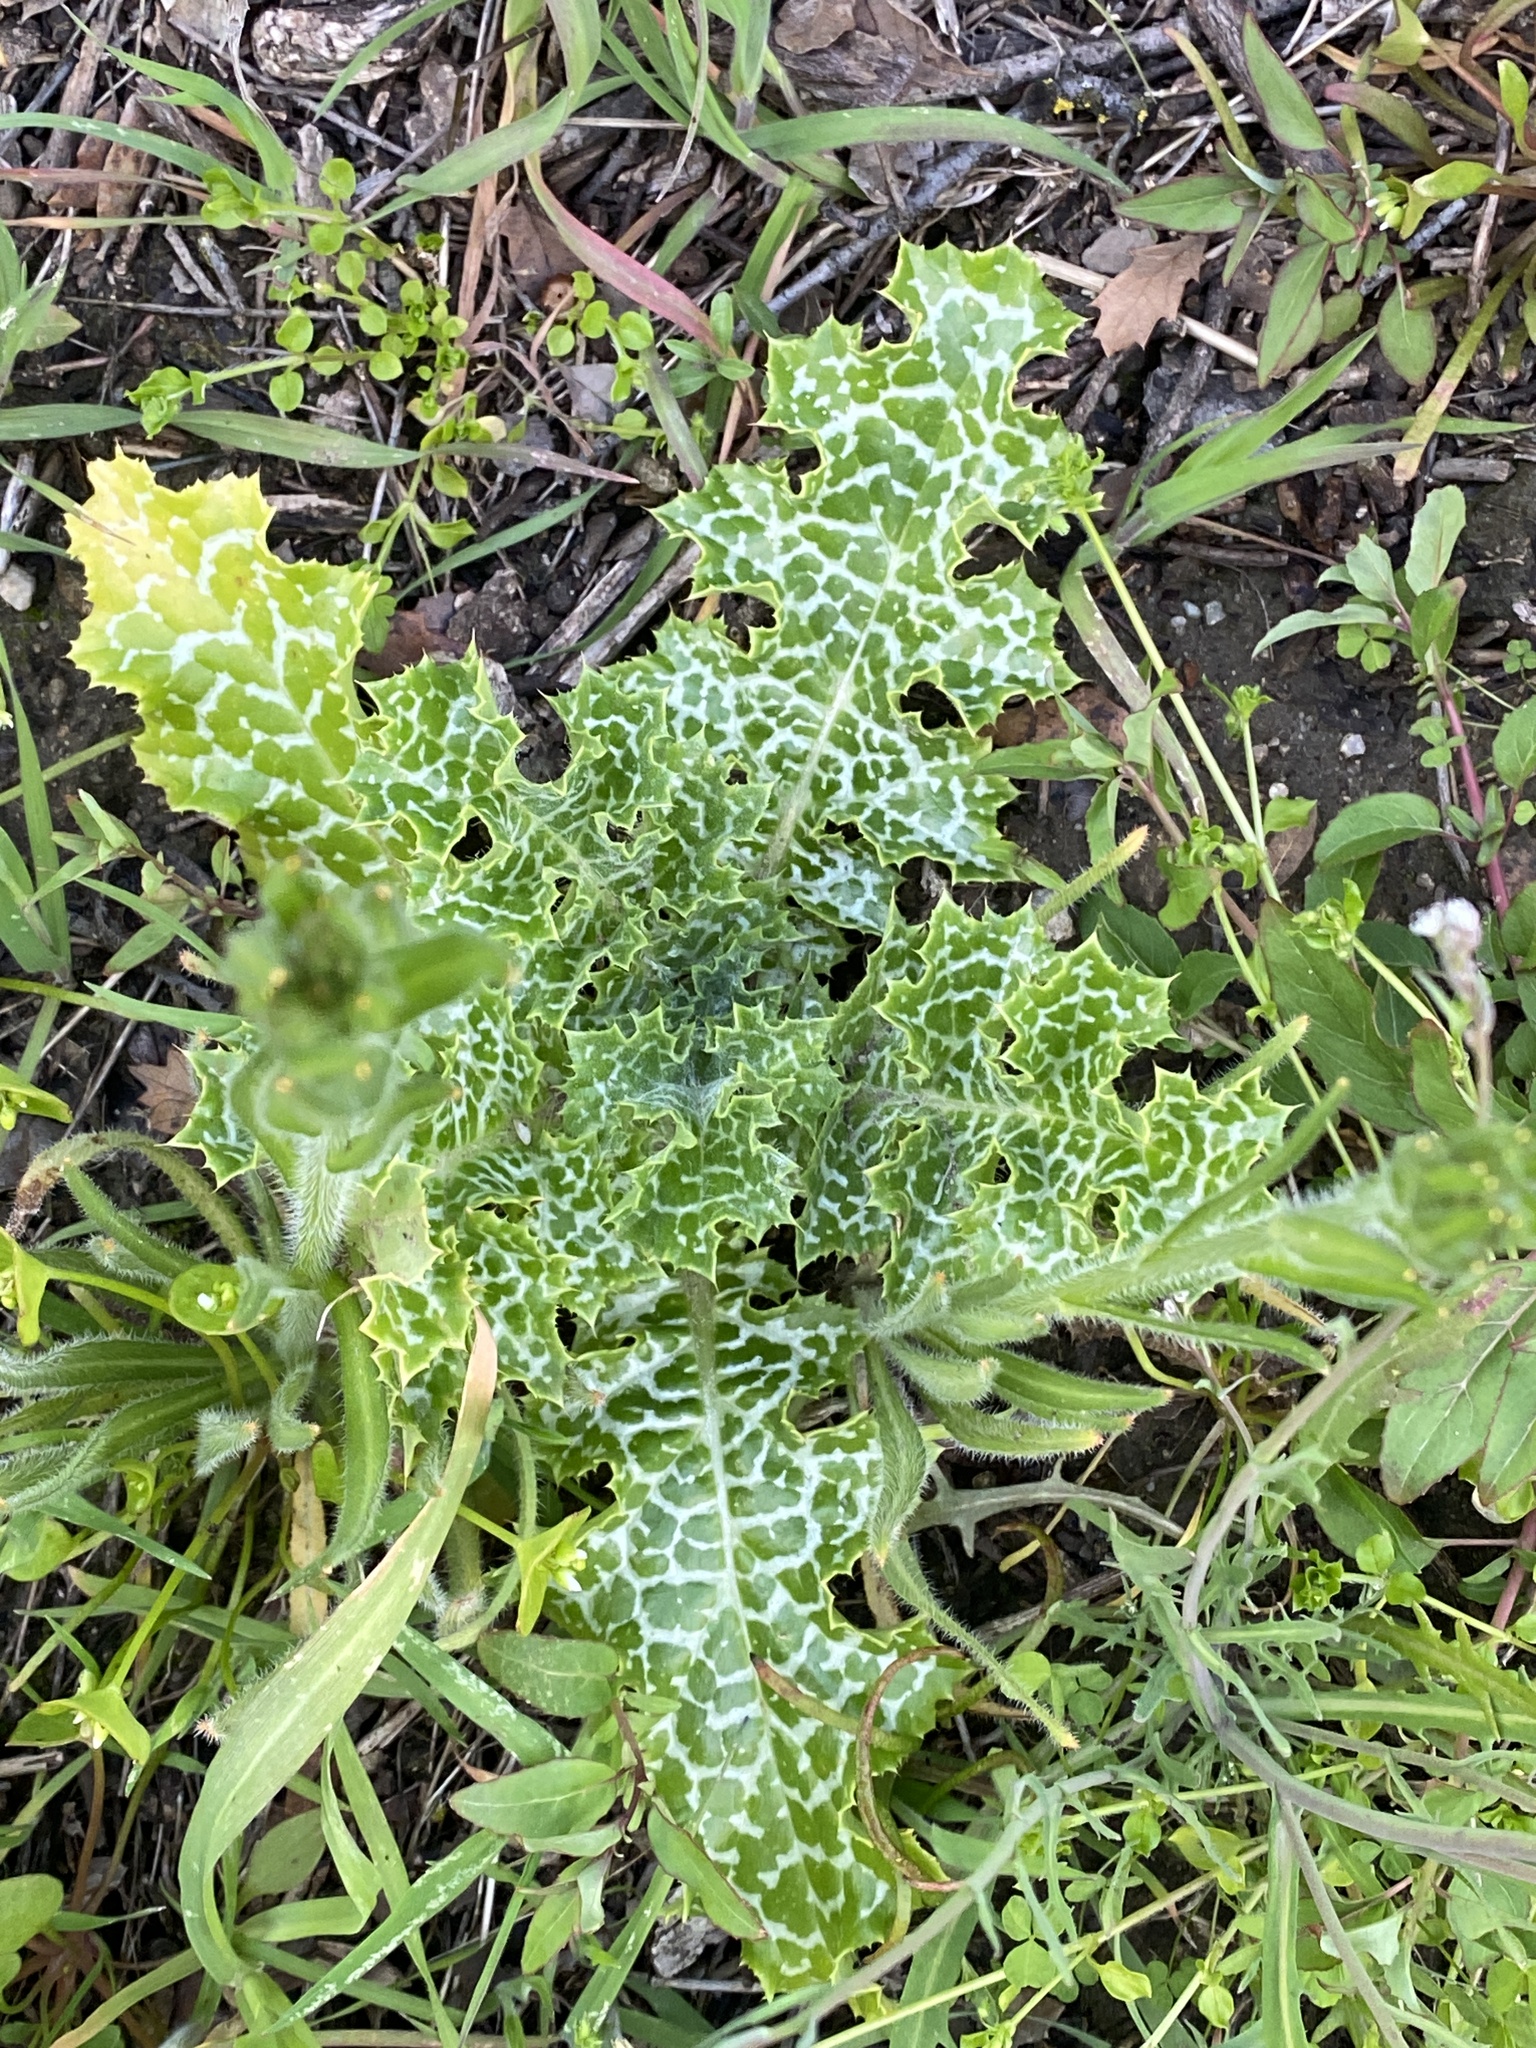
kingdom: Plantae
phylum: Tracheophyta
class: Magnoliopsida
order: Asterales
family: Asteraceae
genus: Silybum
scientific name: Silybum marianum
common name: Milk thistle
